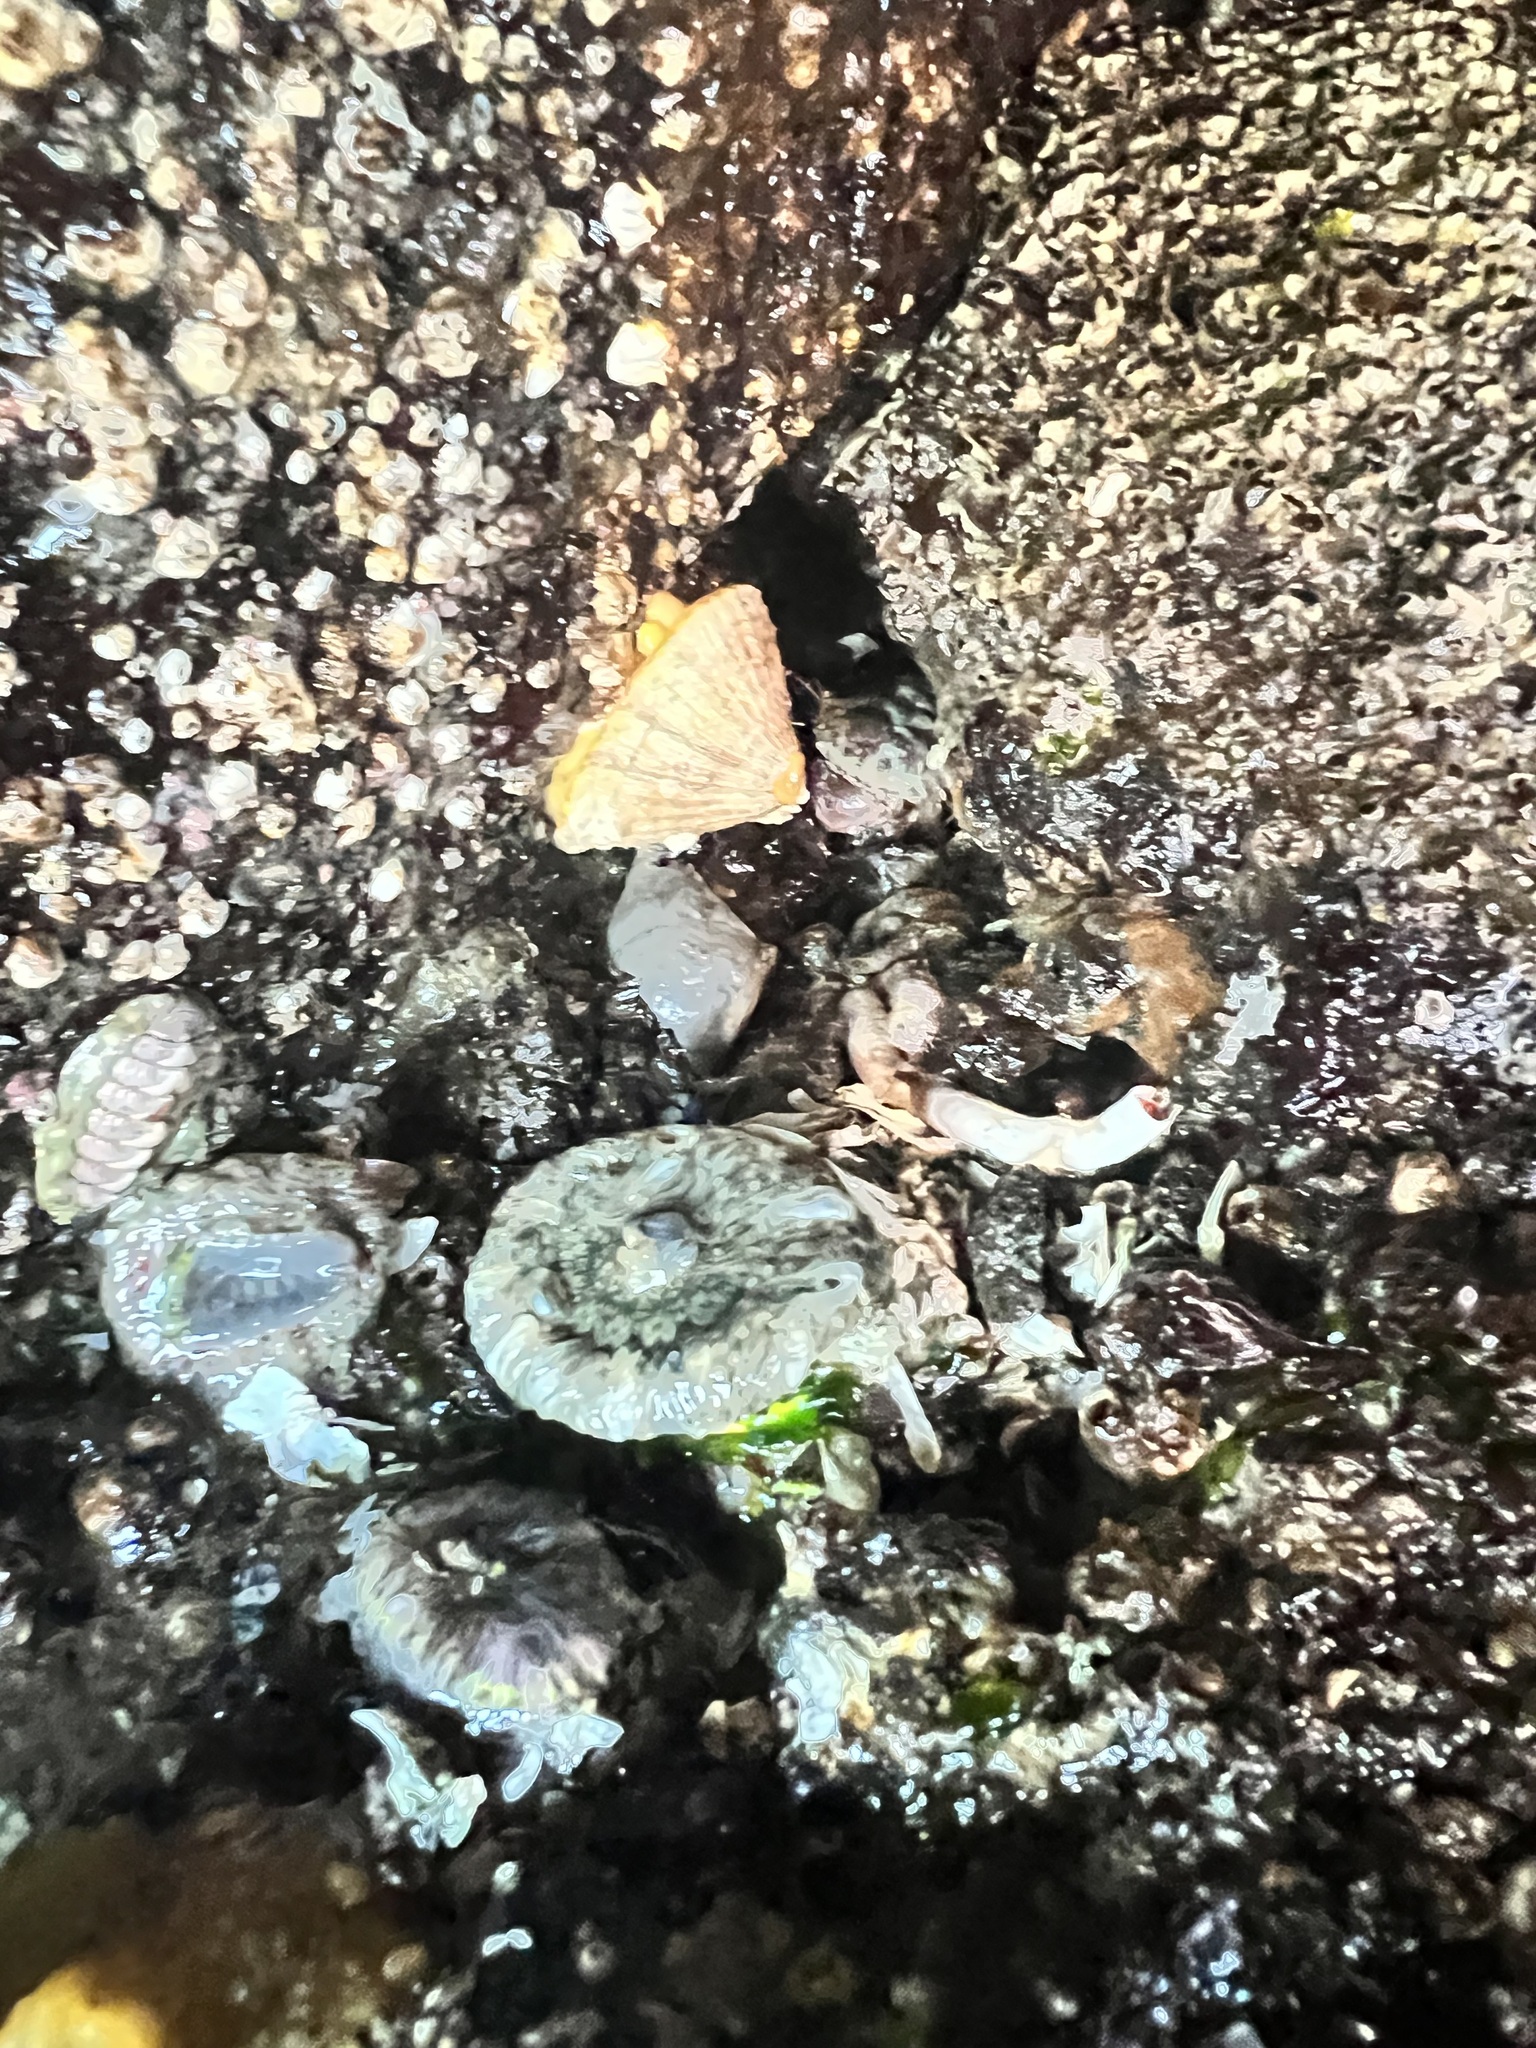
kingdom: Animalia
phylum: Mollusca
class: Gastropoda
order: Lepetellida
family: Fissurellidae
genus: Diodora
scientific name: Diodora aspera
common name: Rough keyhole limpet
